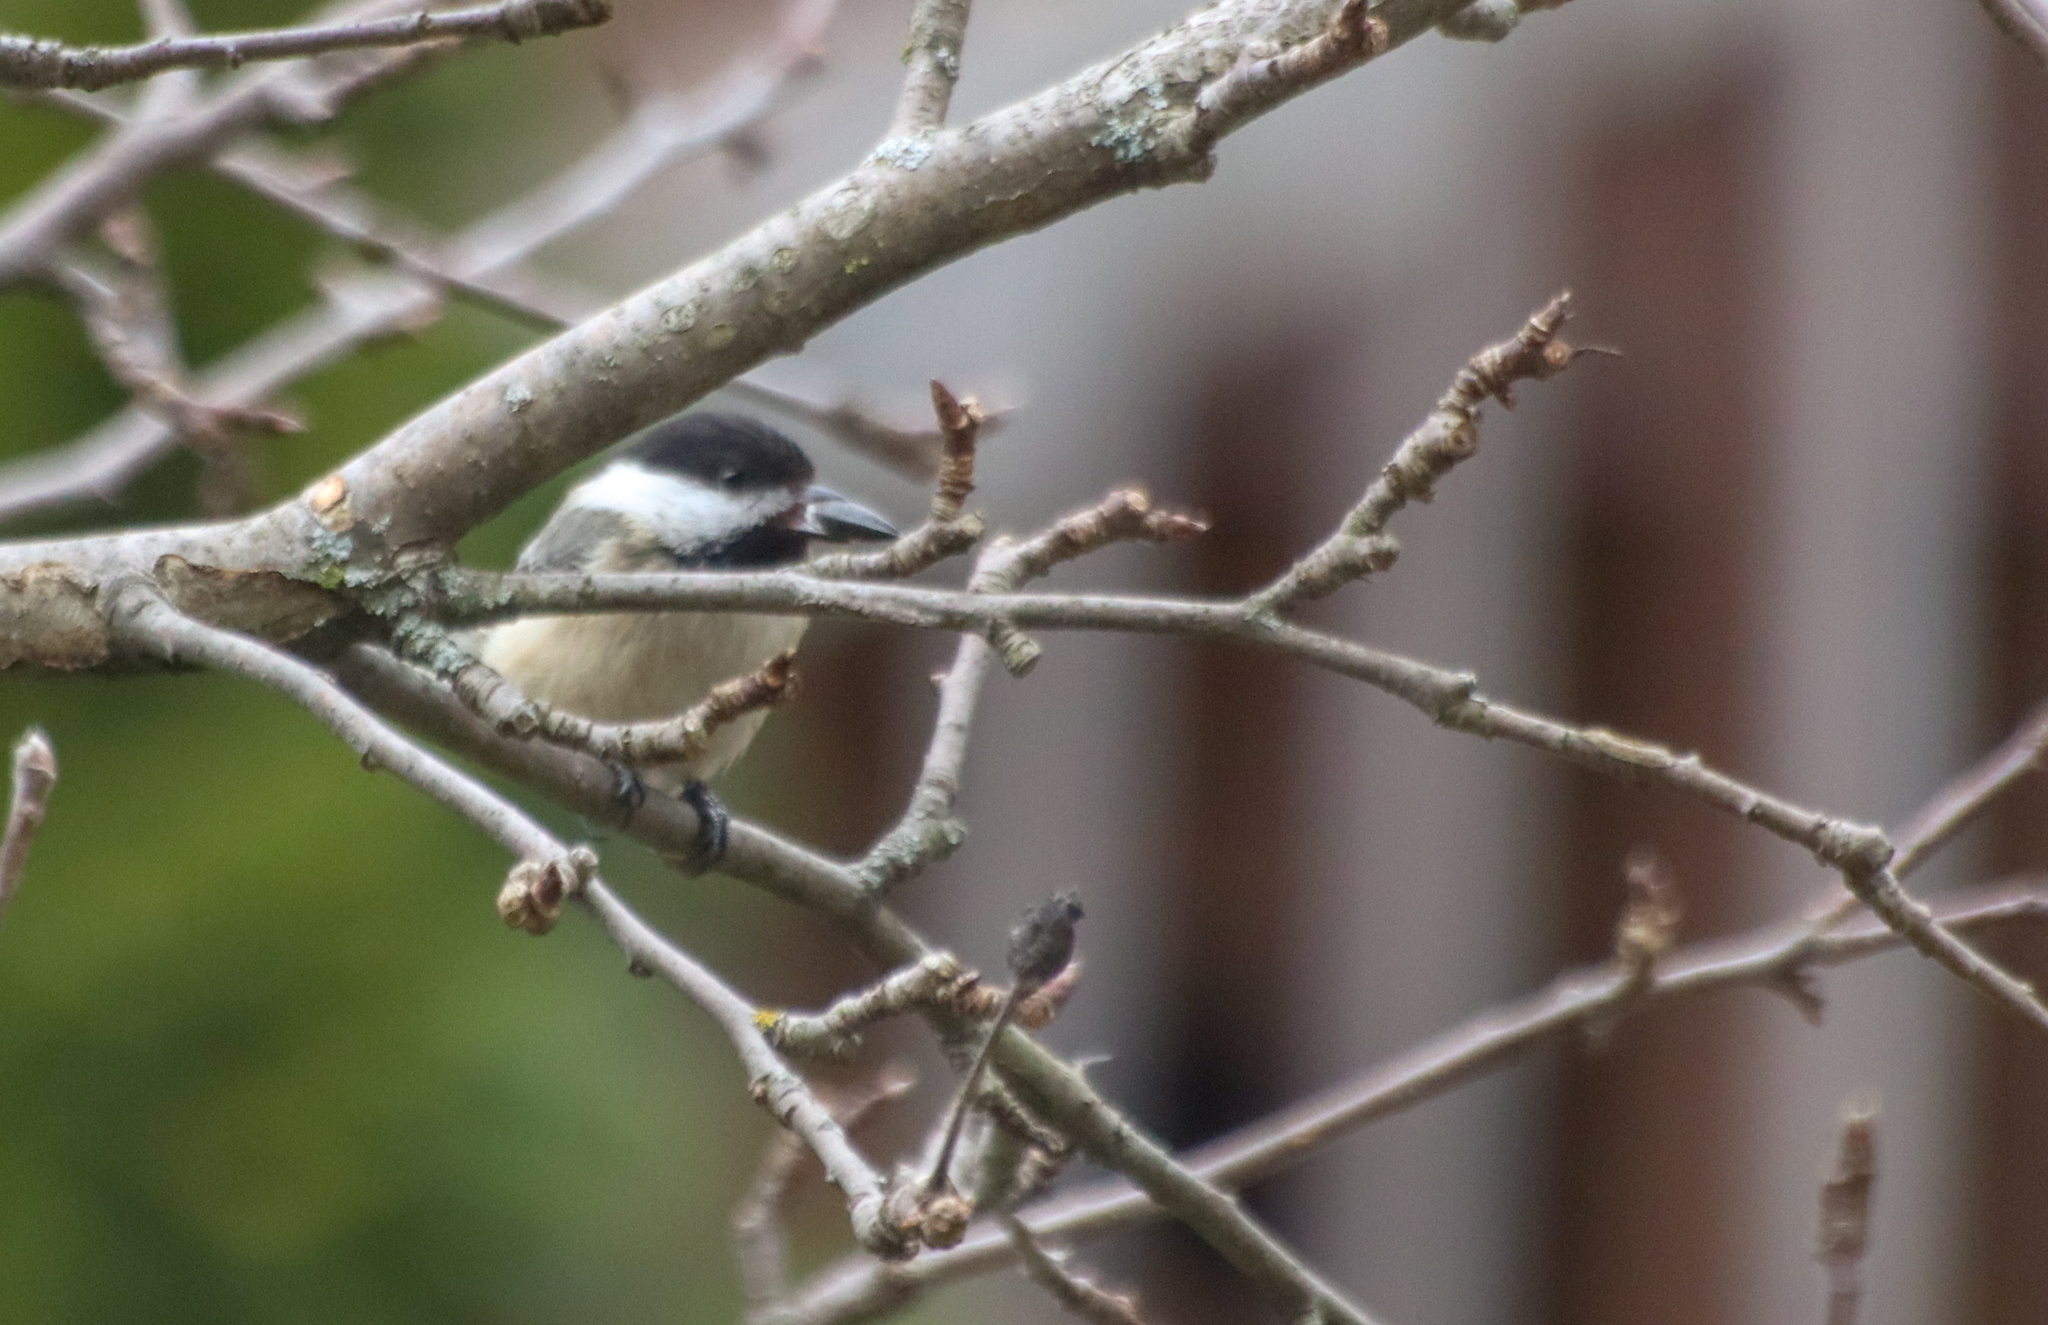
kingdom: Animalia
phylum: Chordata
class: Aves
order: Passeriformes
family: Paridae
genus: Poecile
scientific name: Poecile atricapillus
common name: Black-capped chickadee
